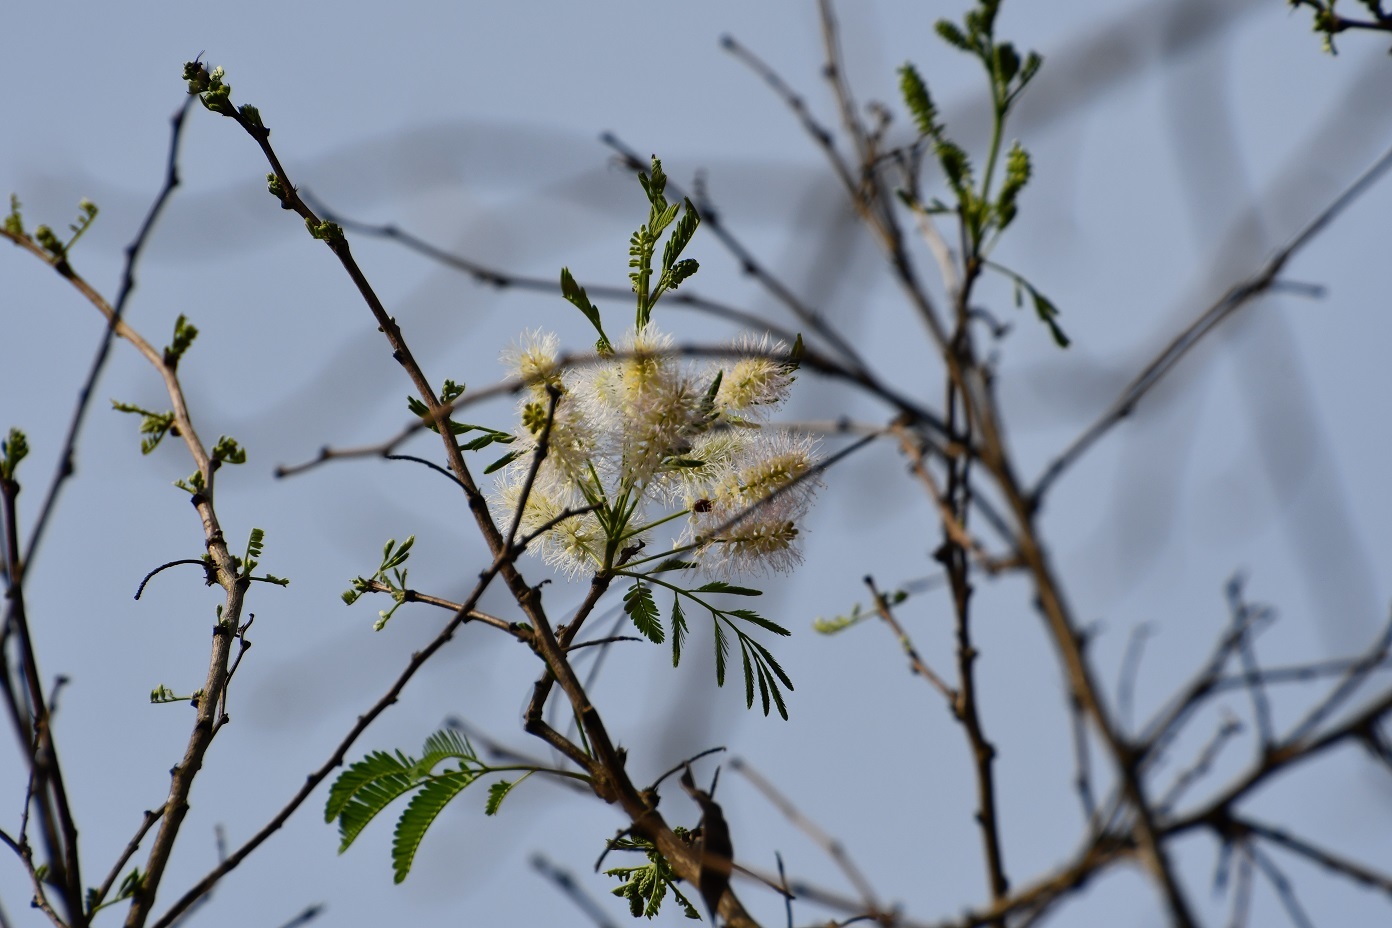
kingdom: Plantae
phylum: Tracheophyta
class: Magnoliopsida
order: Fabales
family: Fabaceae
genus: Mimosa
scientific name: Mimosa platycarpa
